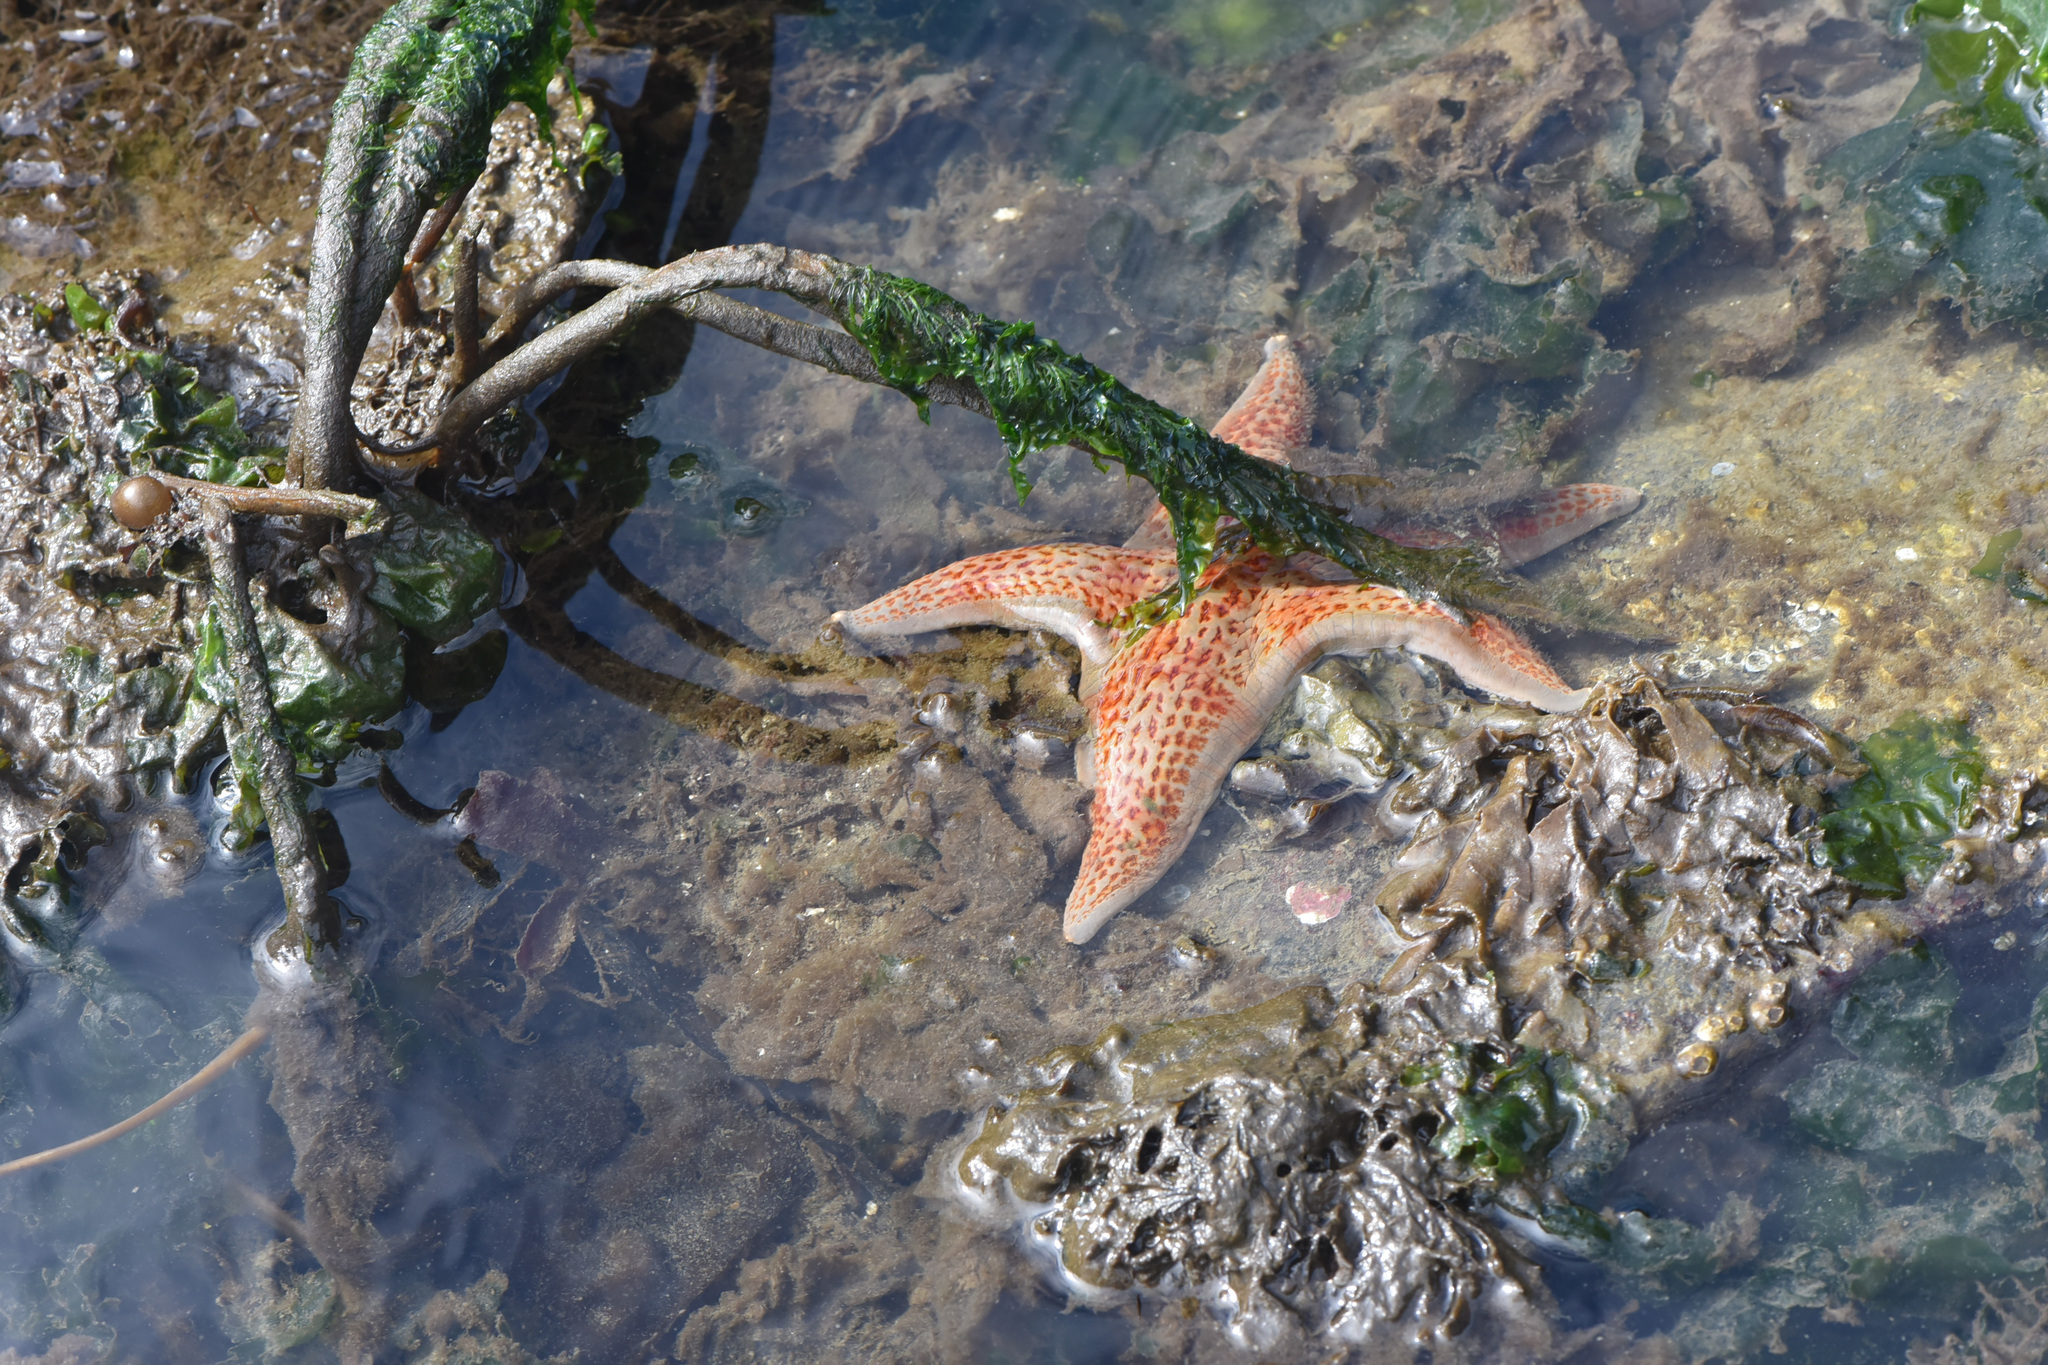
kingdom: Animalia
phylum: Echinodermata
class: Asteroidea
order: Valvatida
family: Asteropseidae
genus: Dermasterias
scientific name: Dermasterias imbricata
